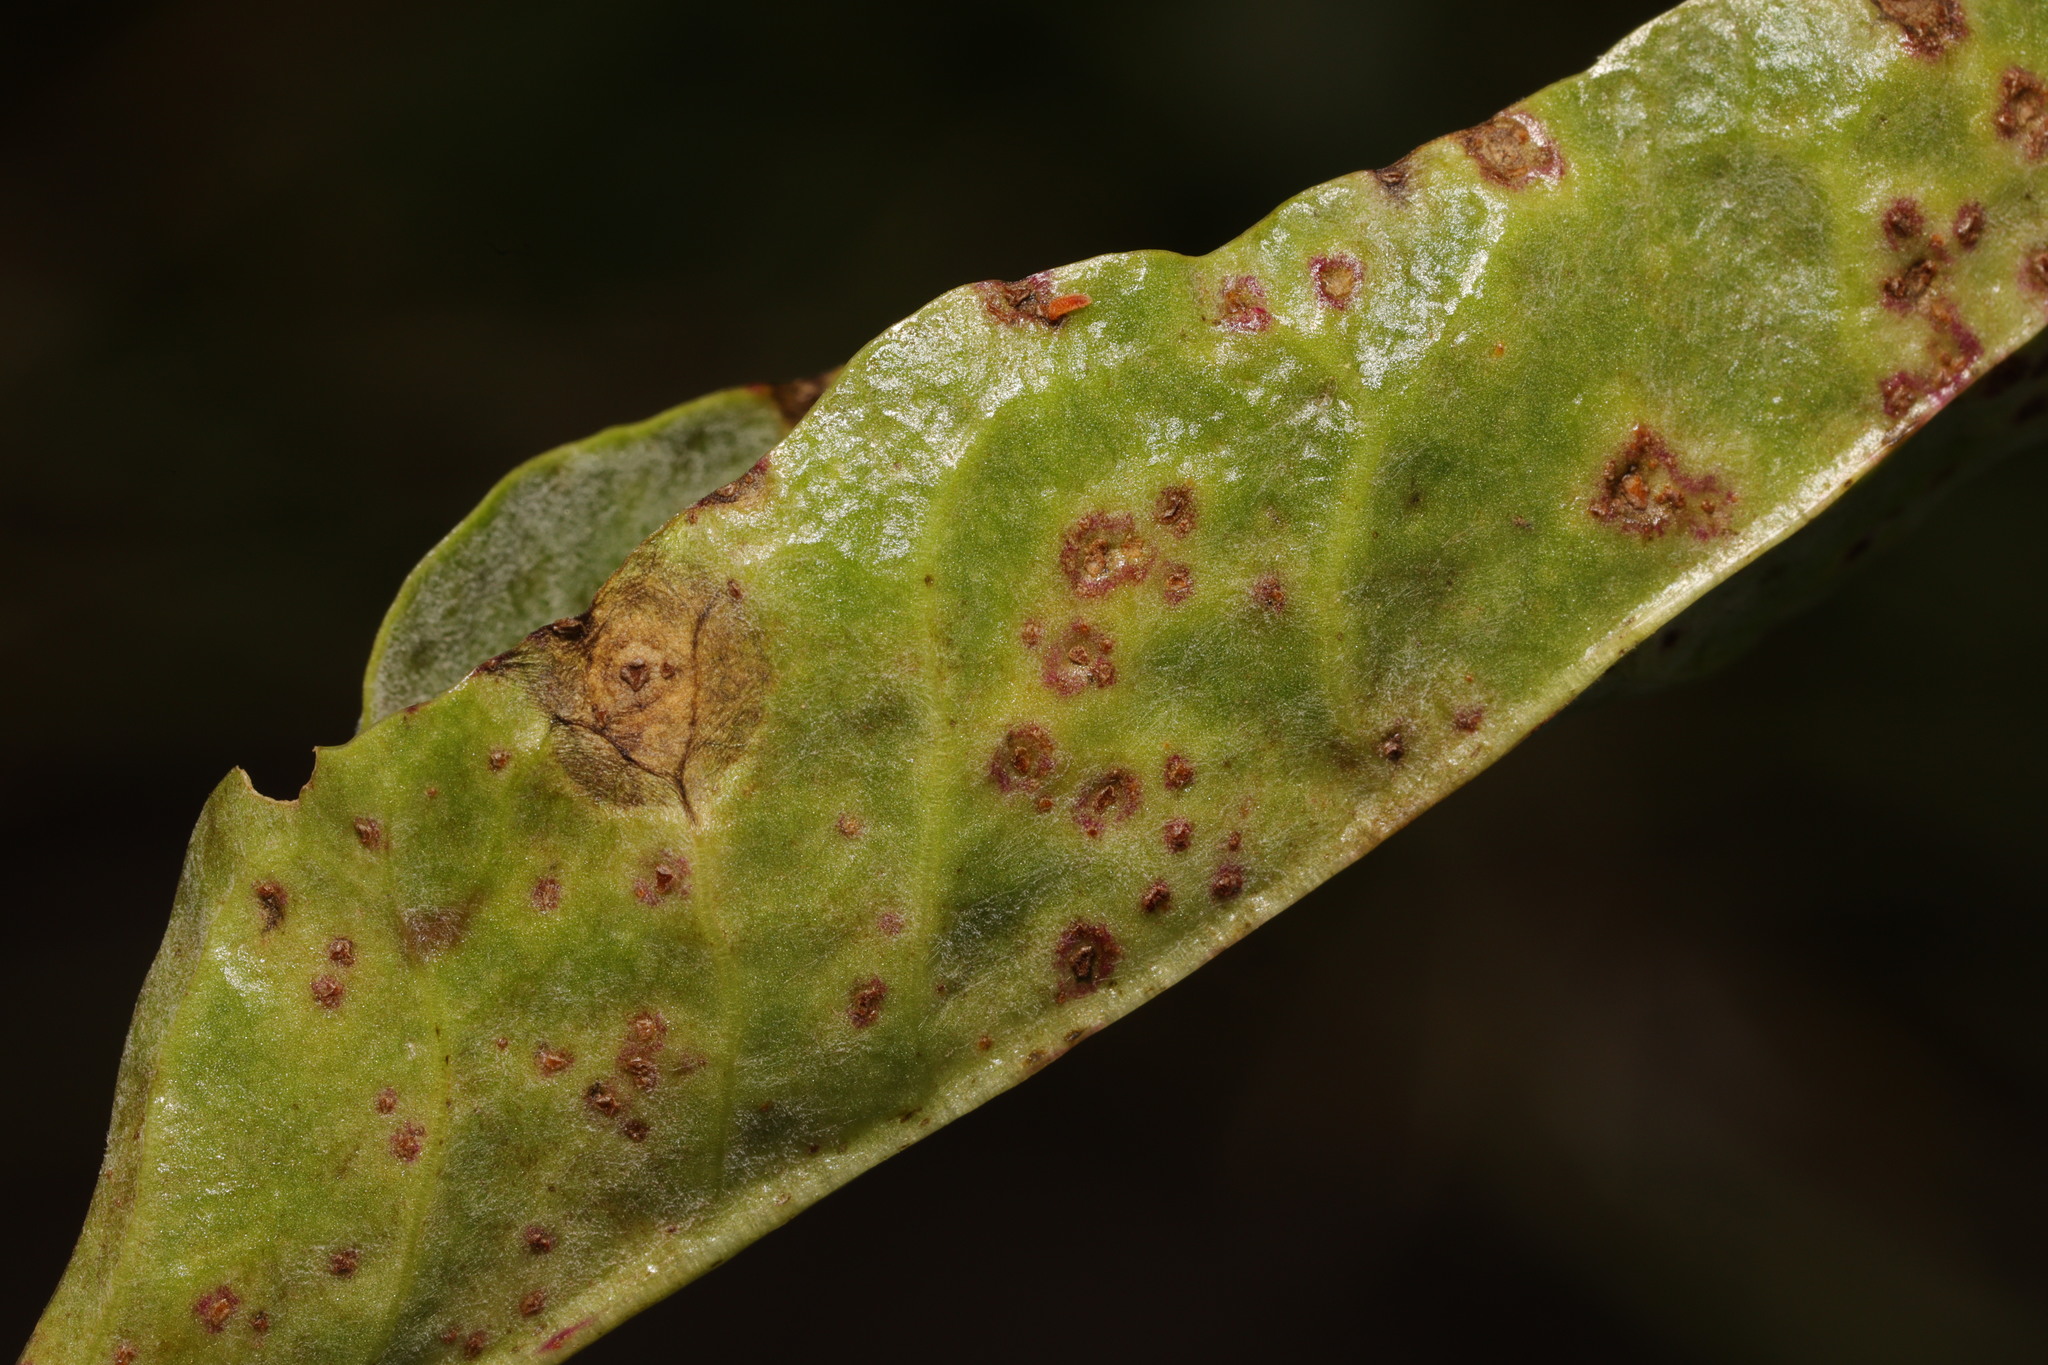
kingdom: Fungi
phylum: Basidiomycota
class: Pucciniomycetes
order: Pucciniales
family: Pucciniaceae
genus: Uromyces
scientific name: Uromyces betae
